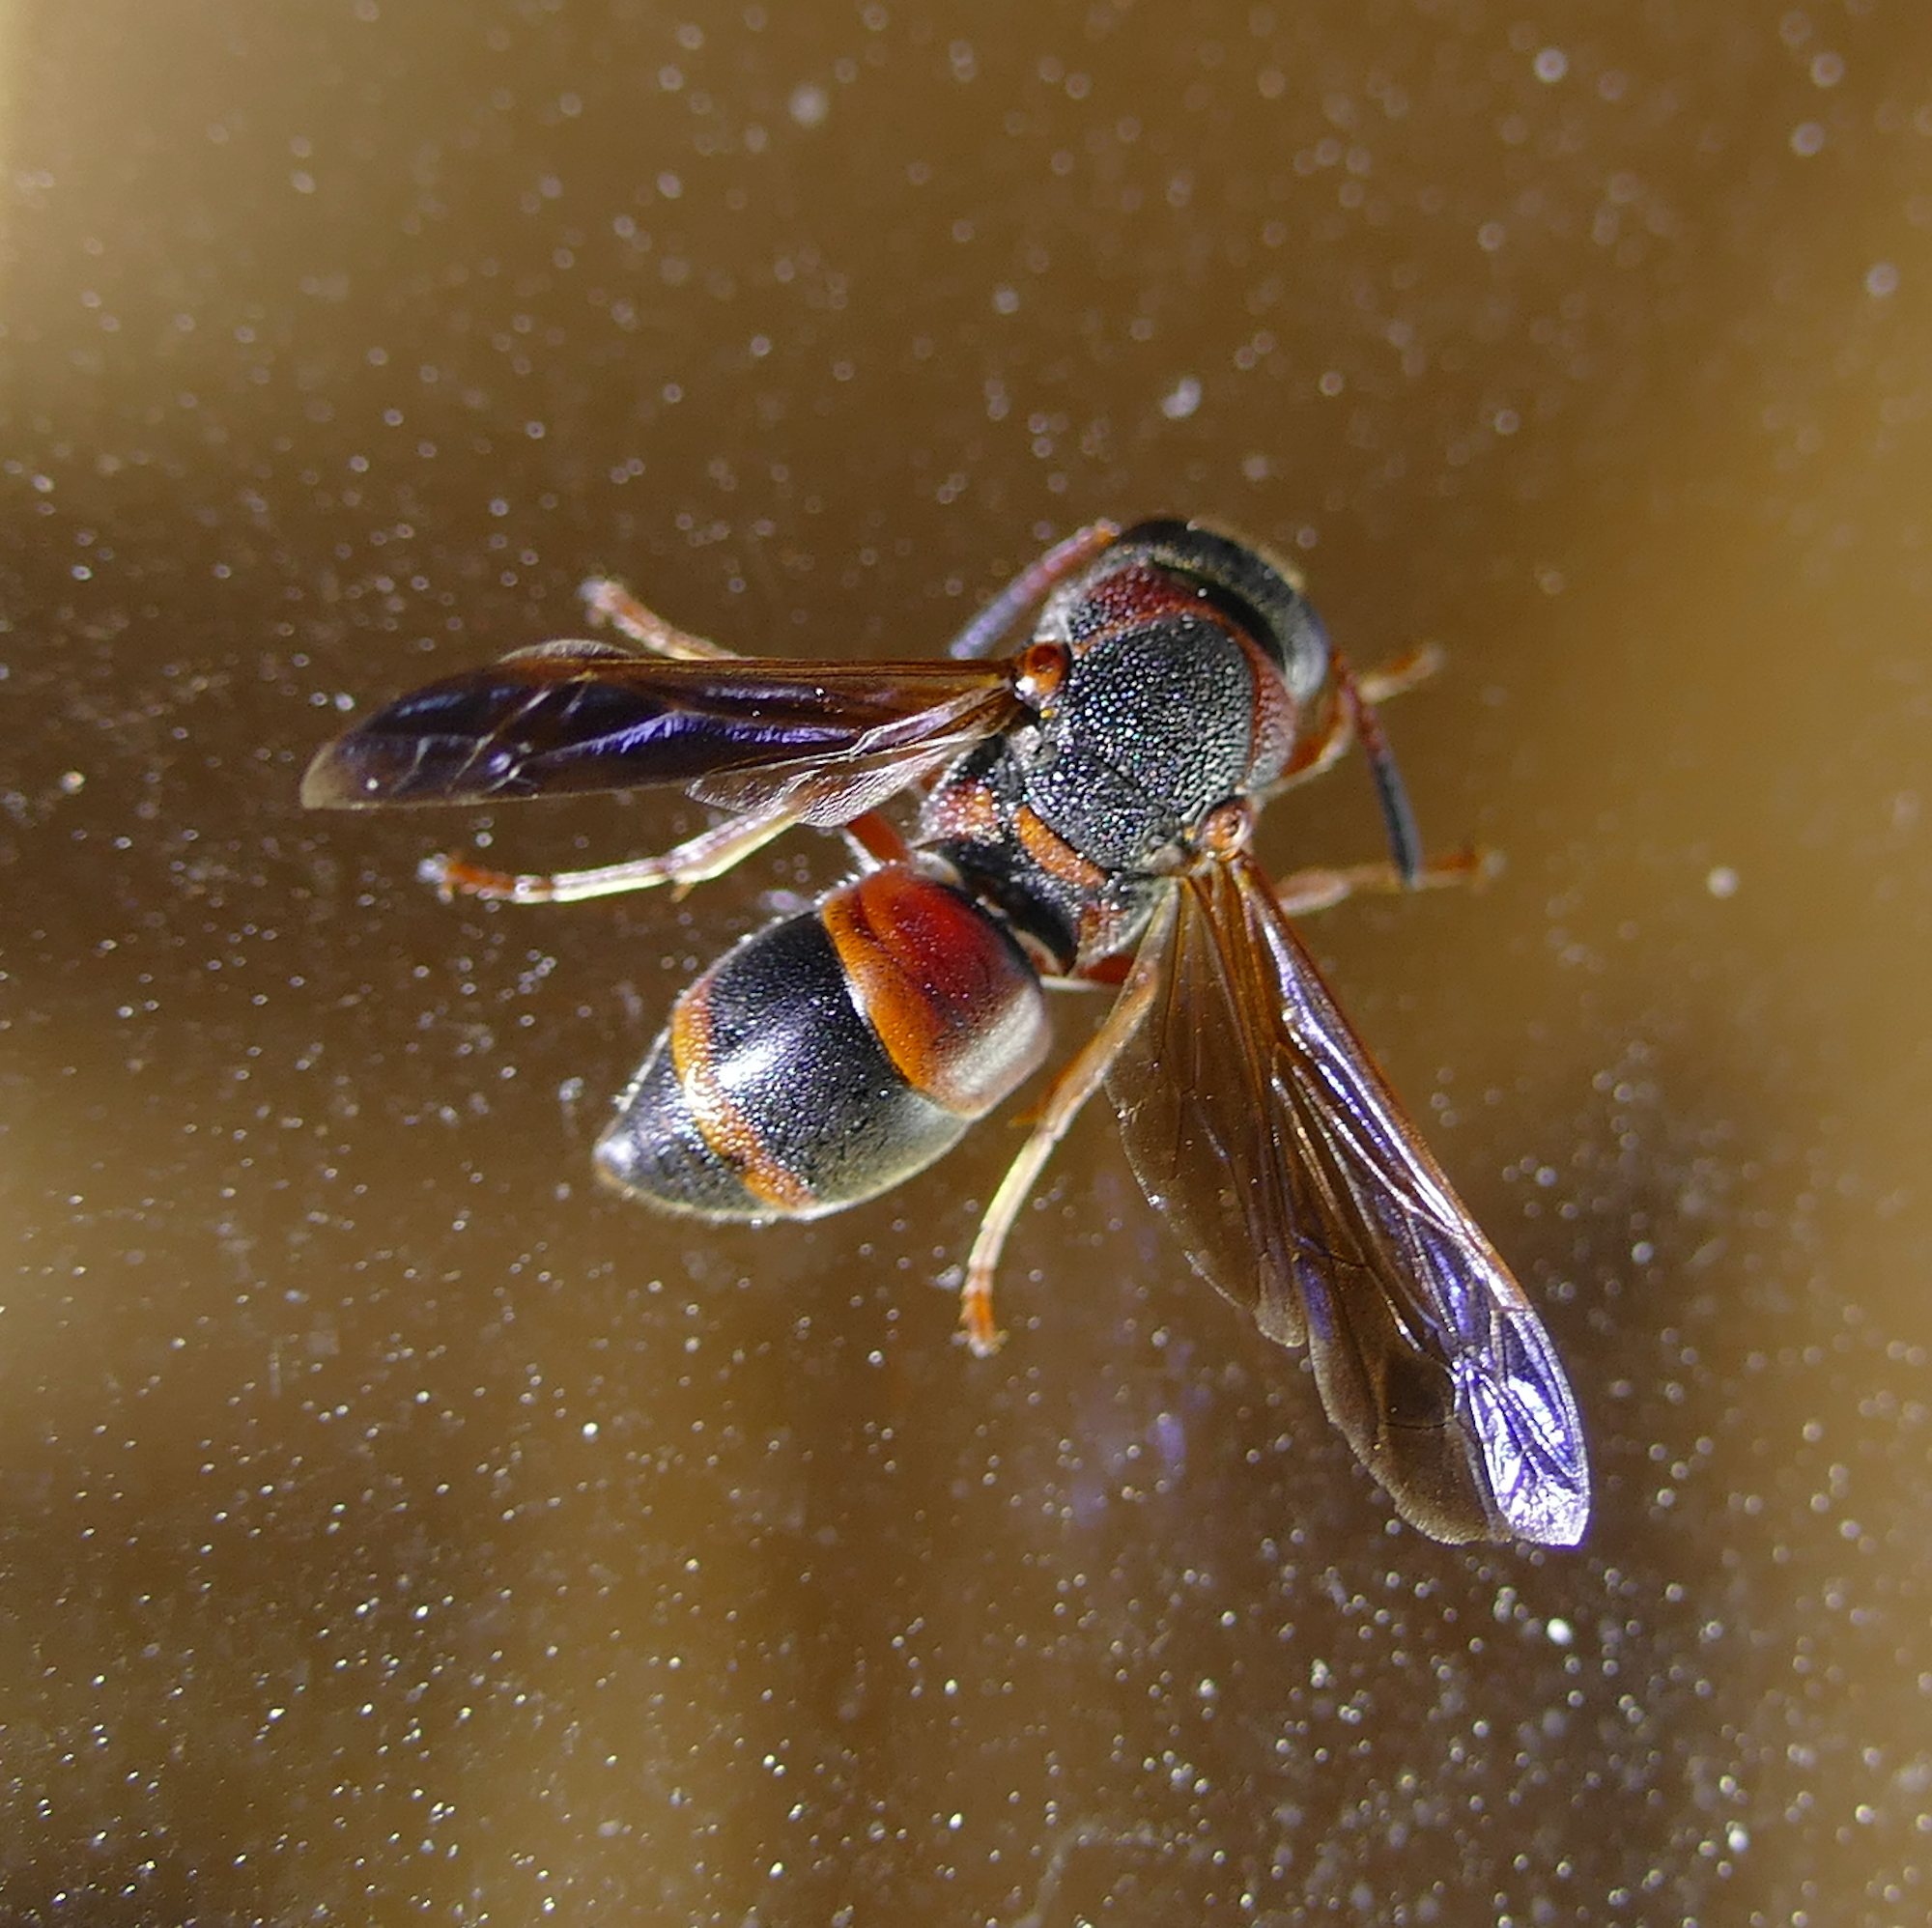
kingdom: Animalia
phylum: Arthropoda
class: Insecta
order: Hymenoptera
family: Eumenidae
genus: Pachodynerus
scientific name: Pachodynerus erynnis
